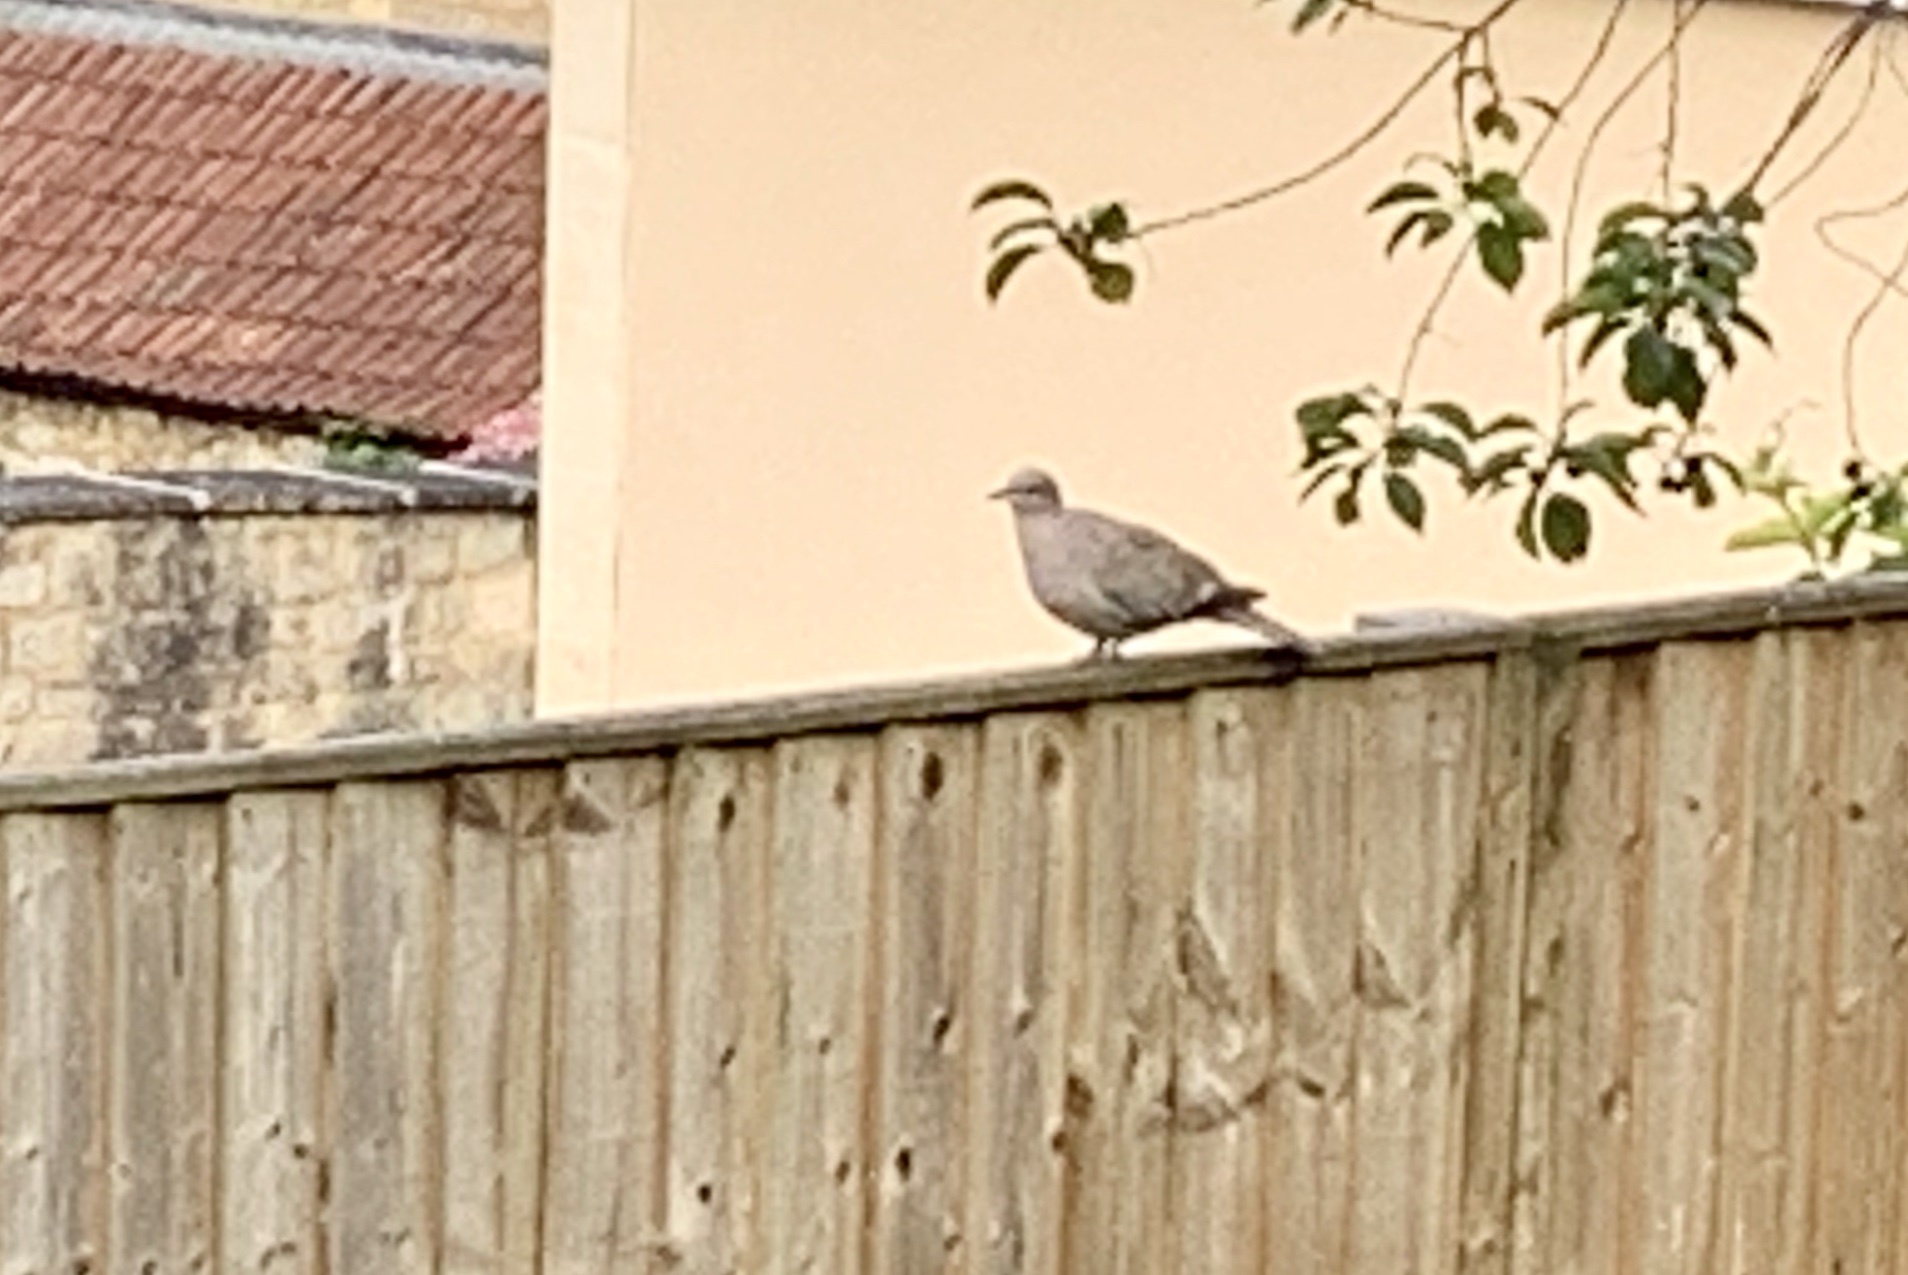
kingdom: Animalia
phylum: Chordata
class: Aves
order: Columbiformes
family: Columbidae
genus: Streptopelia
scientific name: Streptopelia decaocto
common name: Eurasian collared dove
